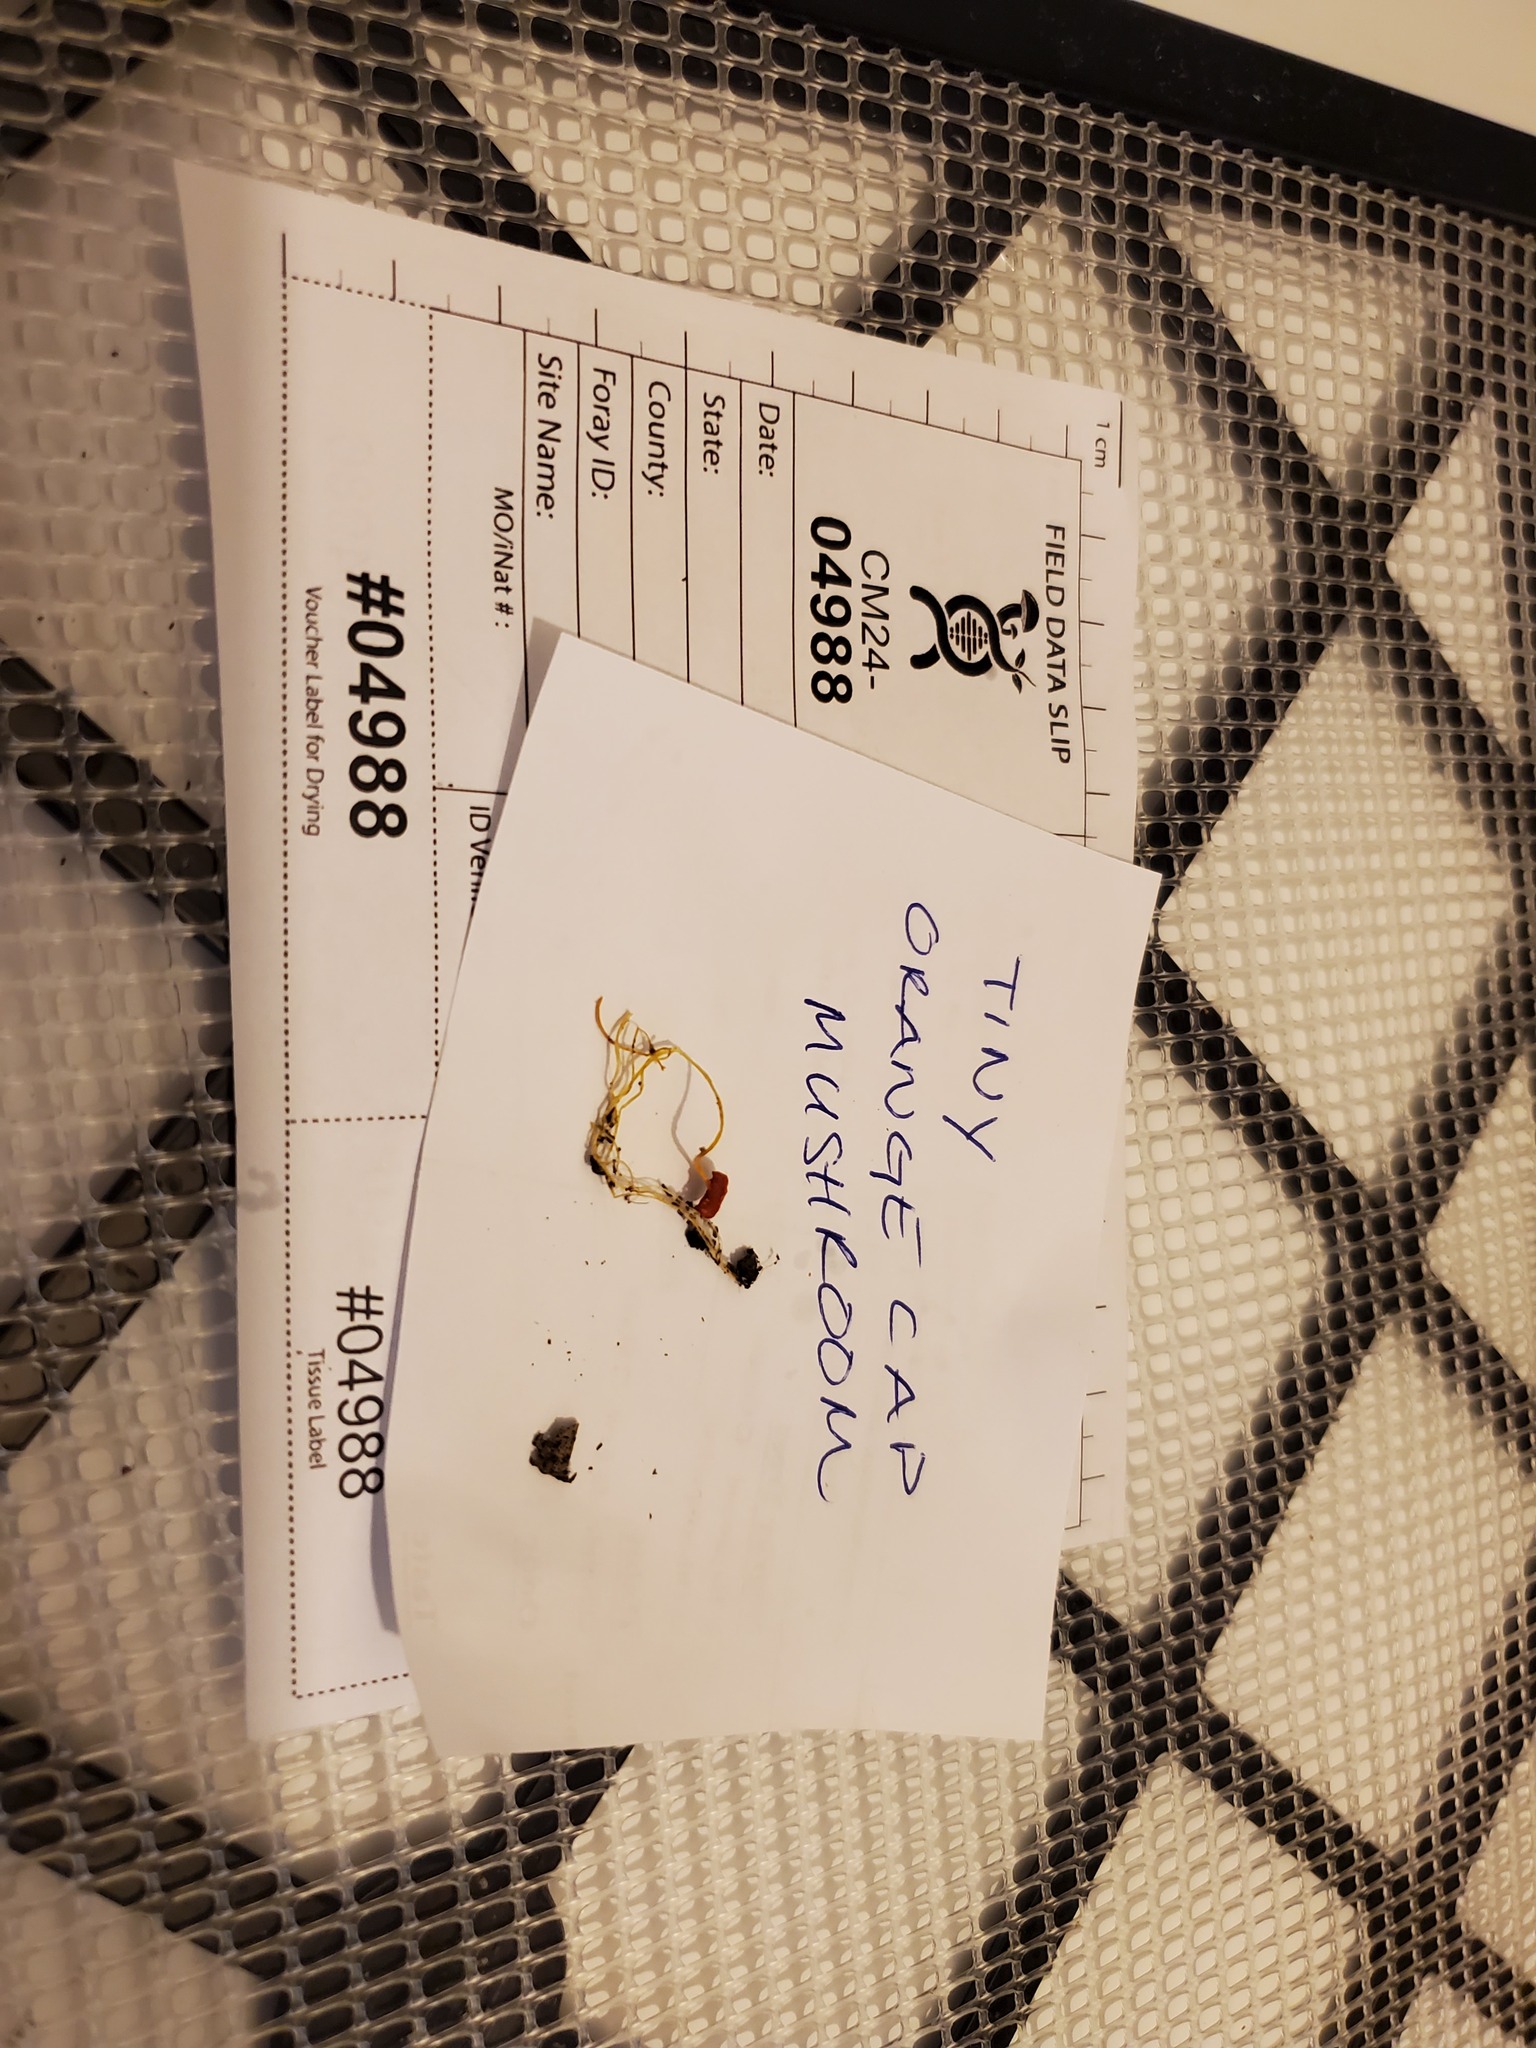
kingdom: Fungi
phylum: Basidiomycota
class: Agaricomycetes
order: Agaricales
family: Mycenaceae
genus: Mycena
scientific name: Mycena acicula
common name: Orange bonnet
